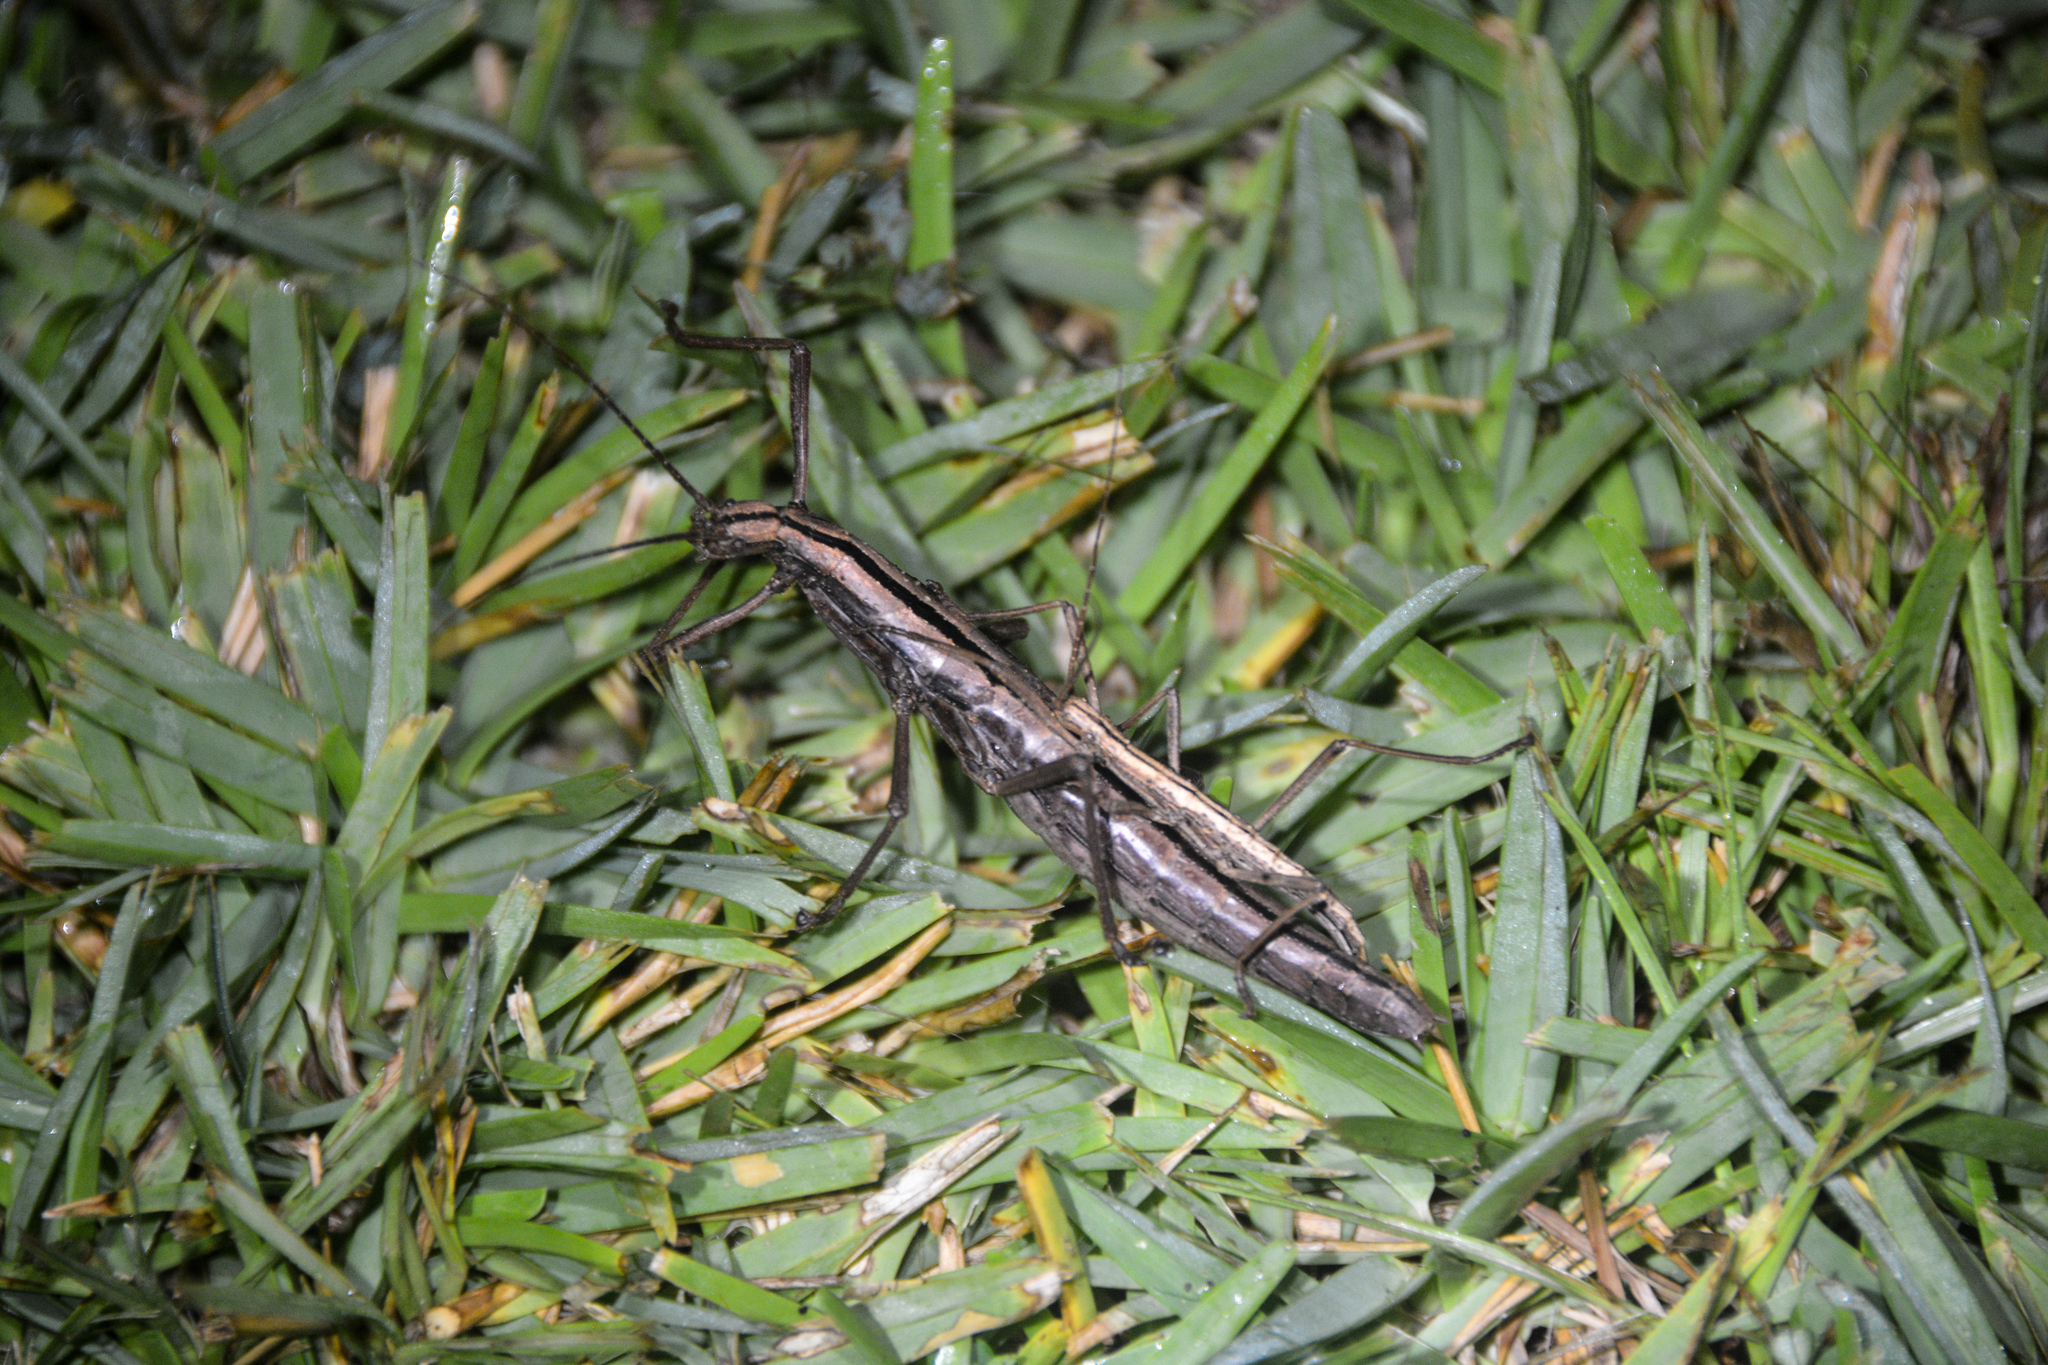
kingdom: Animalia
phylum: Arthropoda
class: Insecta
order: Phasmida
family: Pseudophasmatidae
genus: Anisomorpha
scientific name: Anisomorpha buprestoides
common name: Florida stick insect
